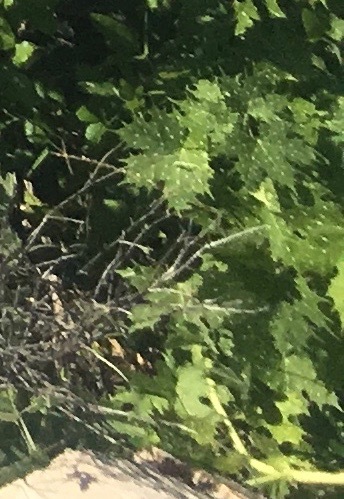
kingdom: Plantae
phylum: Tracheophyta
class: Magnoliopsida
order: Malpighiales
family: Euphorbiaceae
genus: Cnidoscolus
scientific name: Cnidoscolus maculatus
